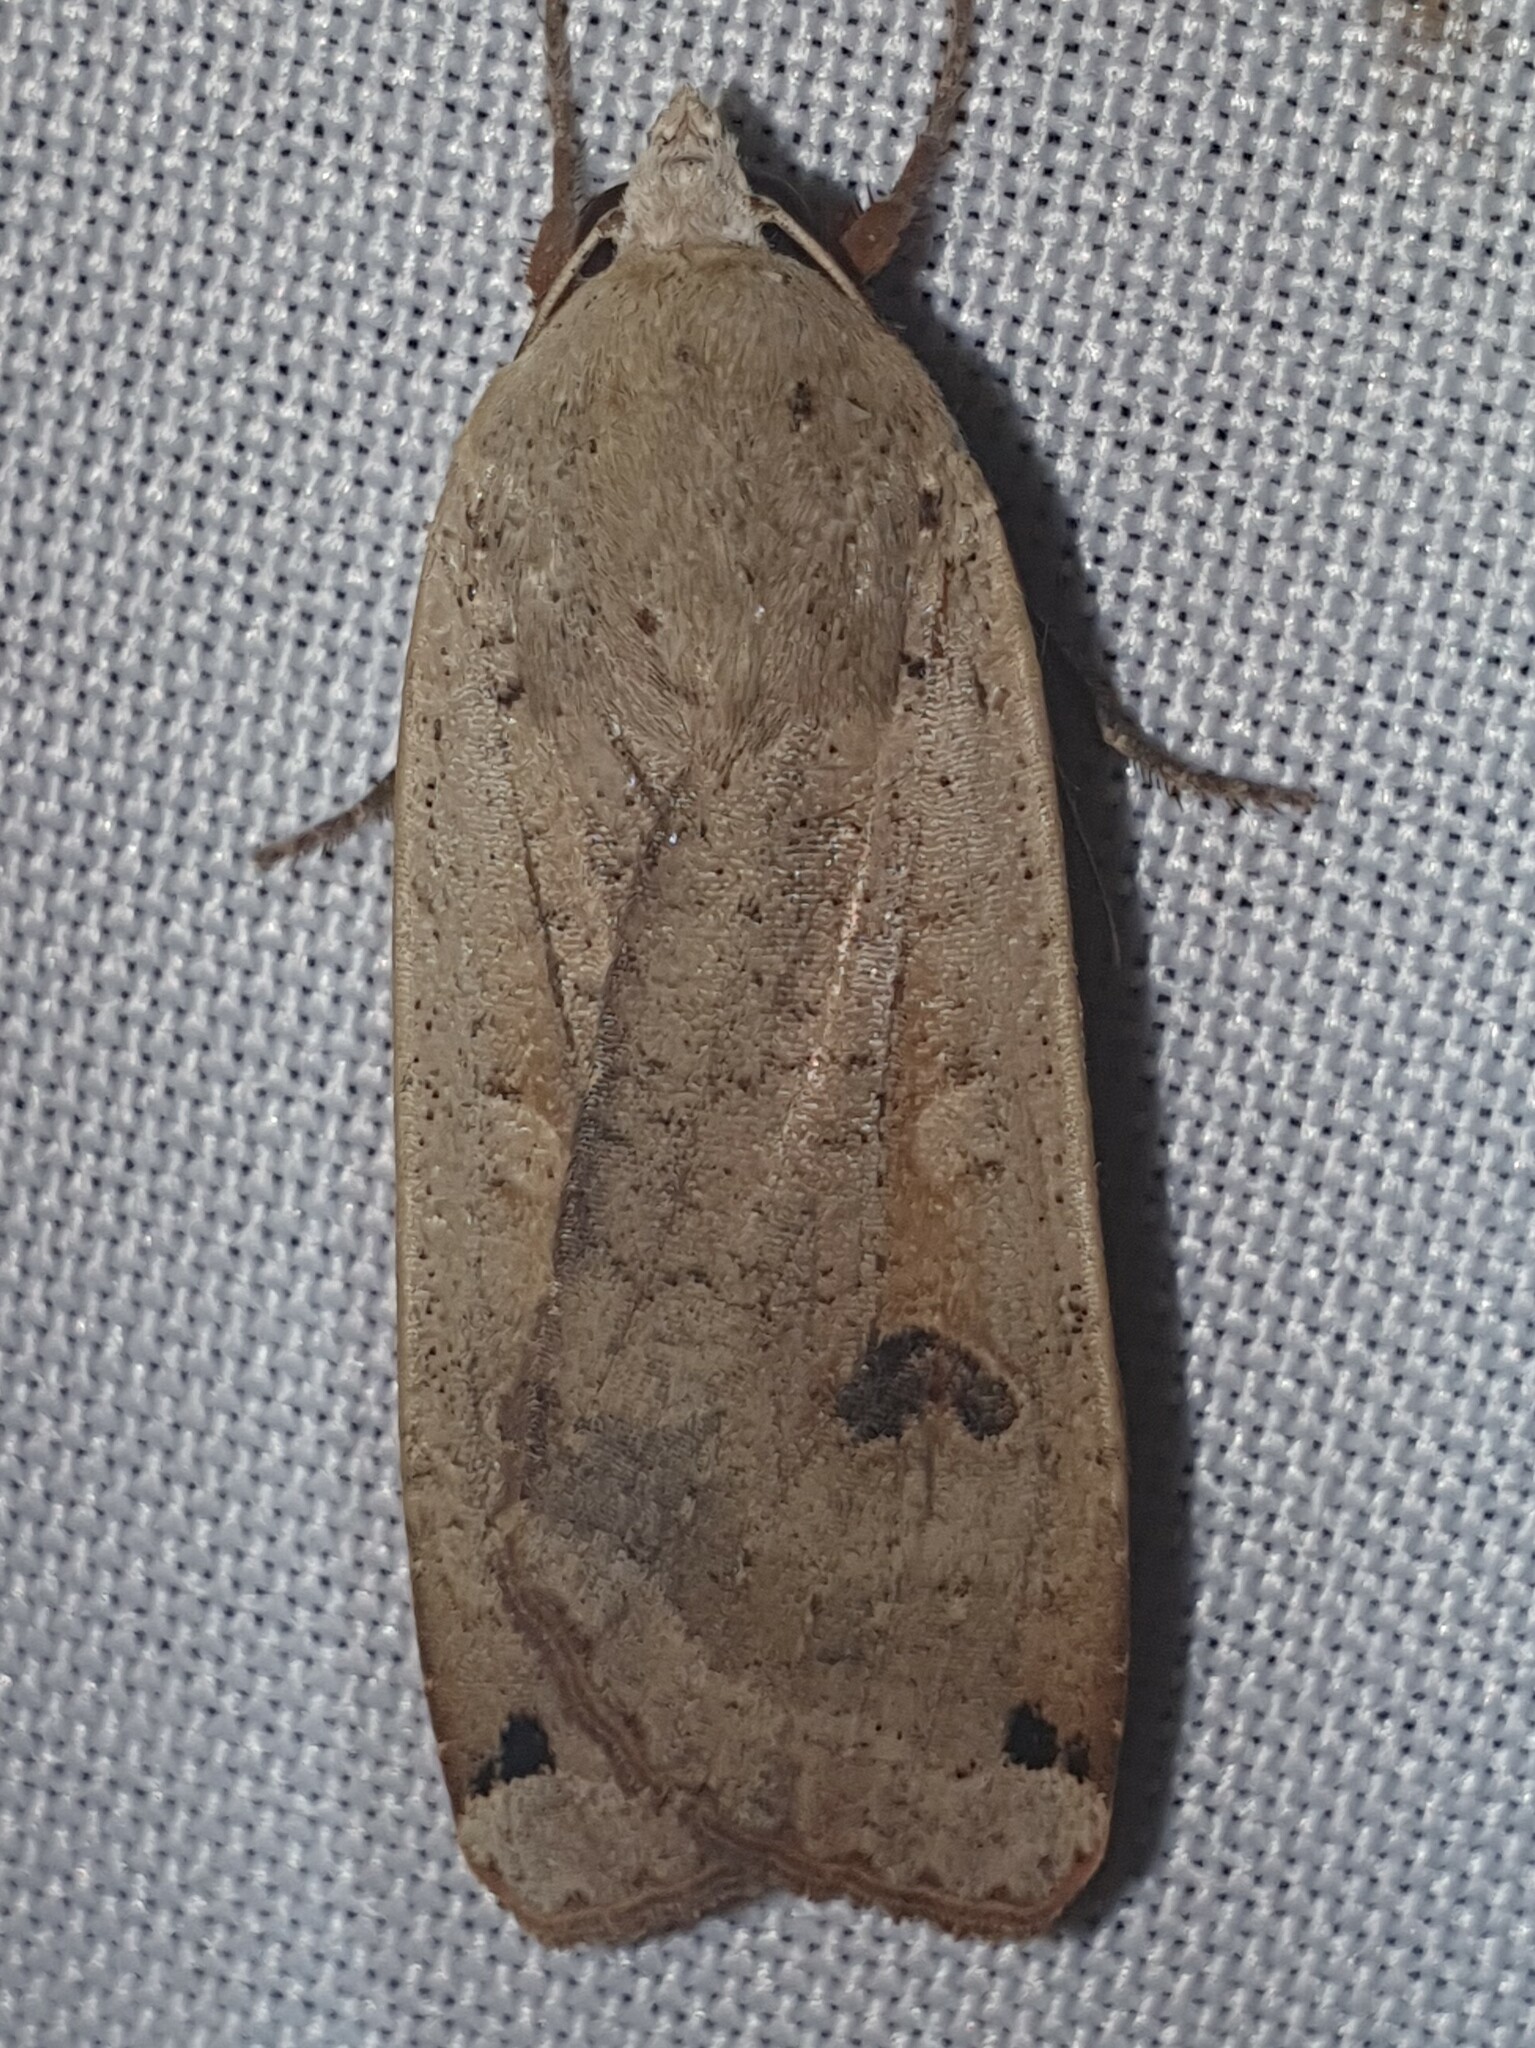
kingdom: Animalia
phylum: Arthropoda
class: Insecta
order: Lepidoptera
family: Noctuidae
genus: Noctua
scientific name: Noctua pronuba
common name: Large yellow underwing
